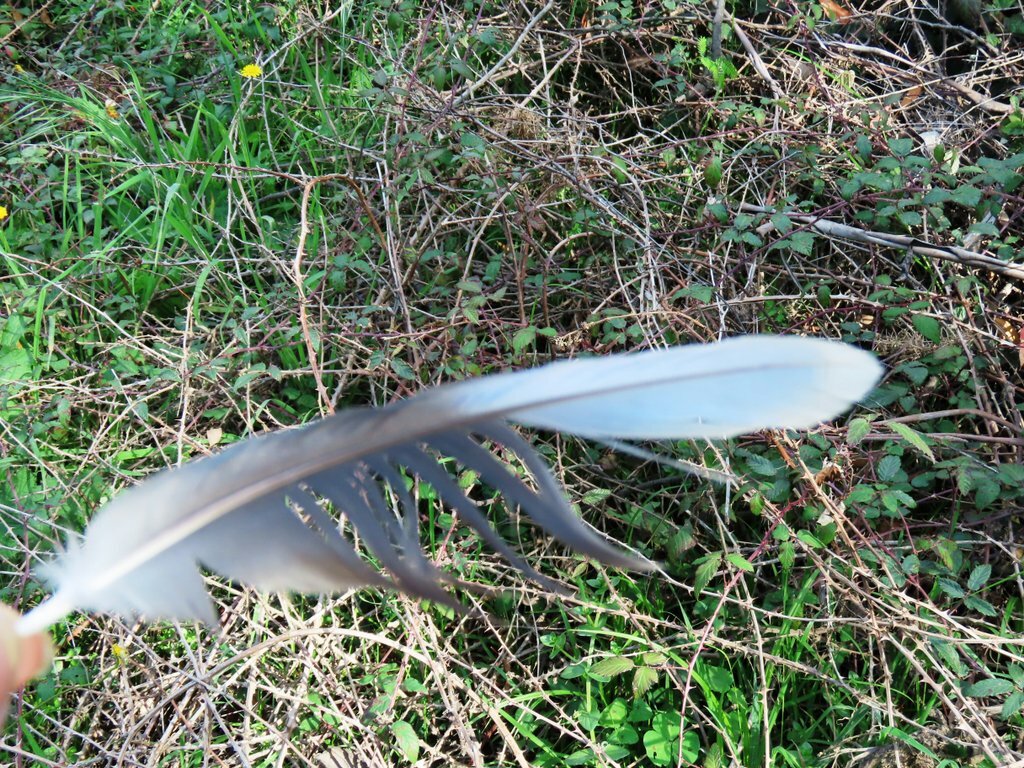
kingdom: Animalia
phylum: Chordata
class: Aves
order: Psittaciformes
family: Psittacidae
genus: Platycercus
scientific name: Platycercus elegans
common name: Crimson rosella
